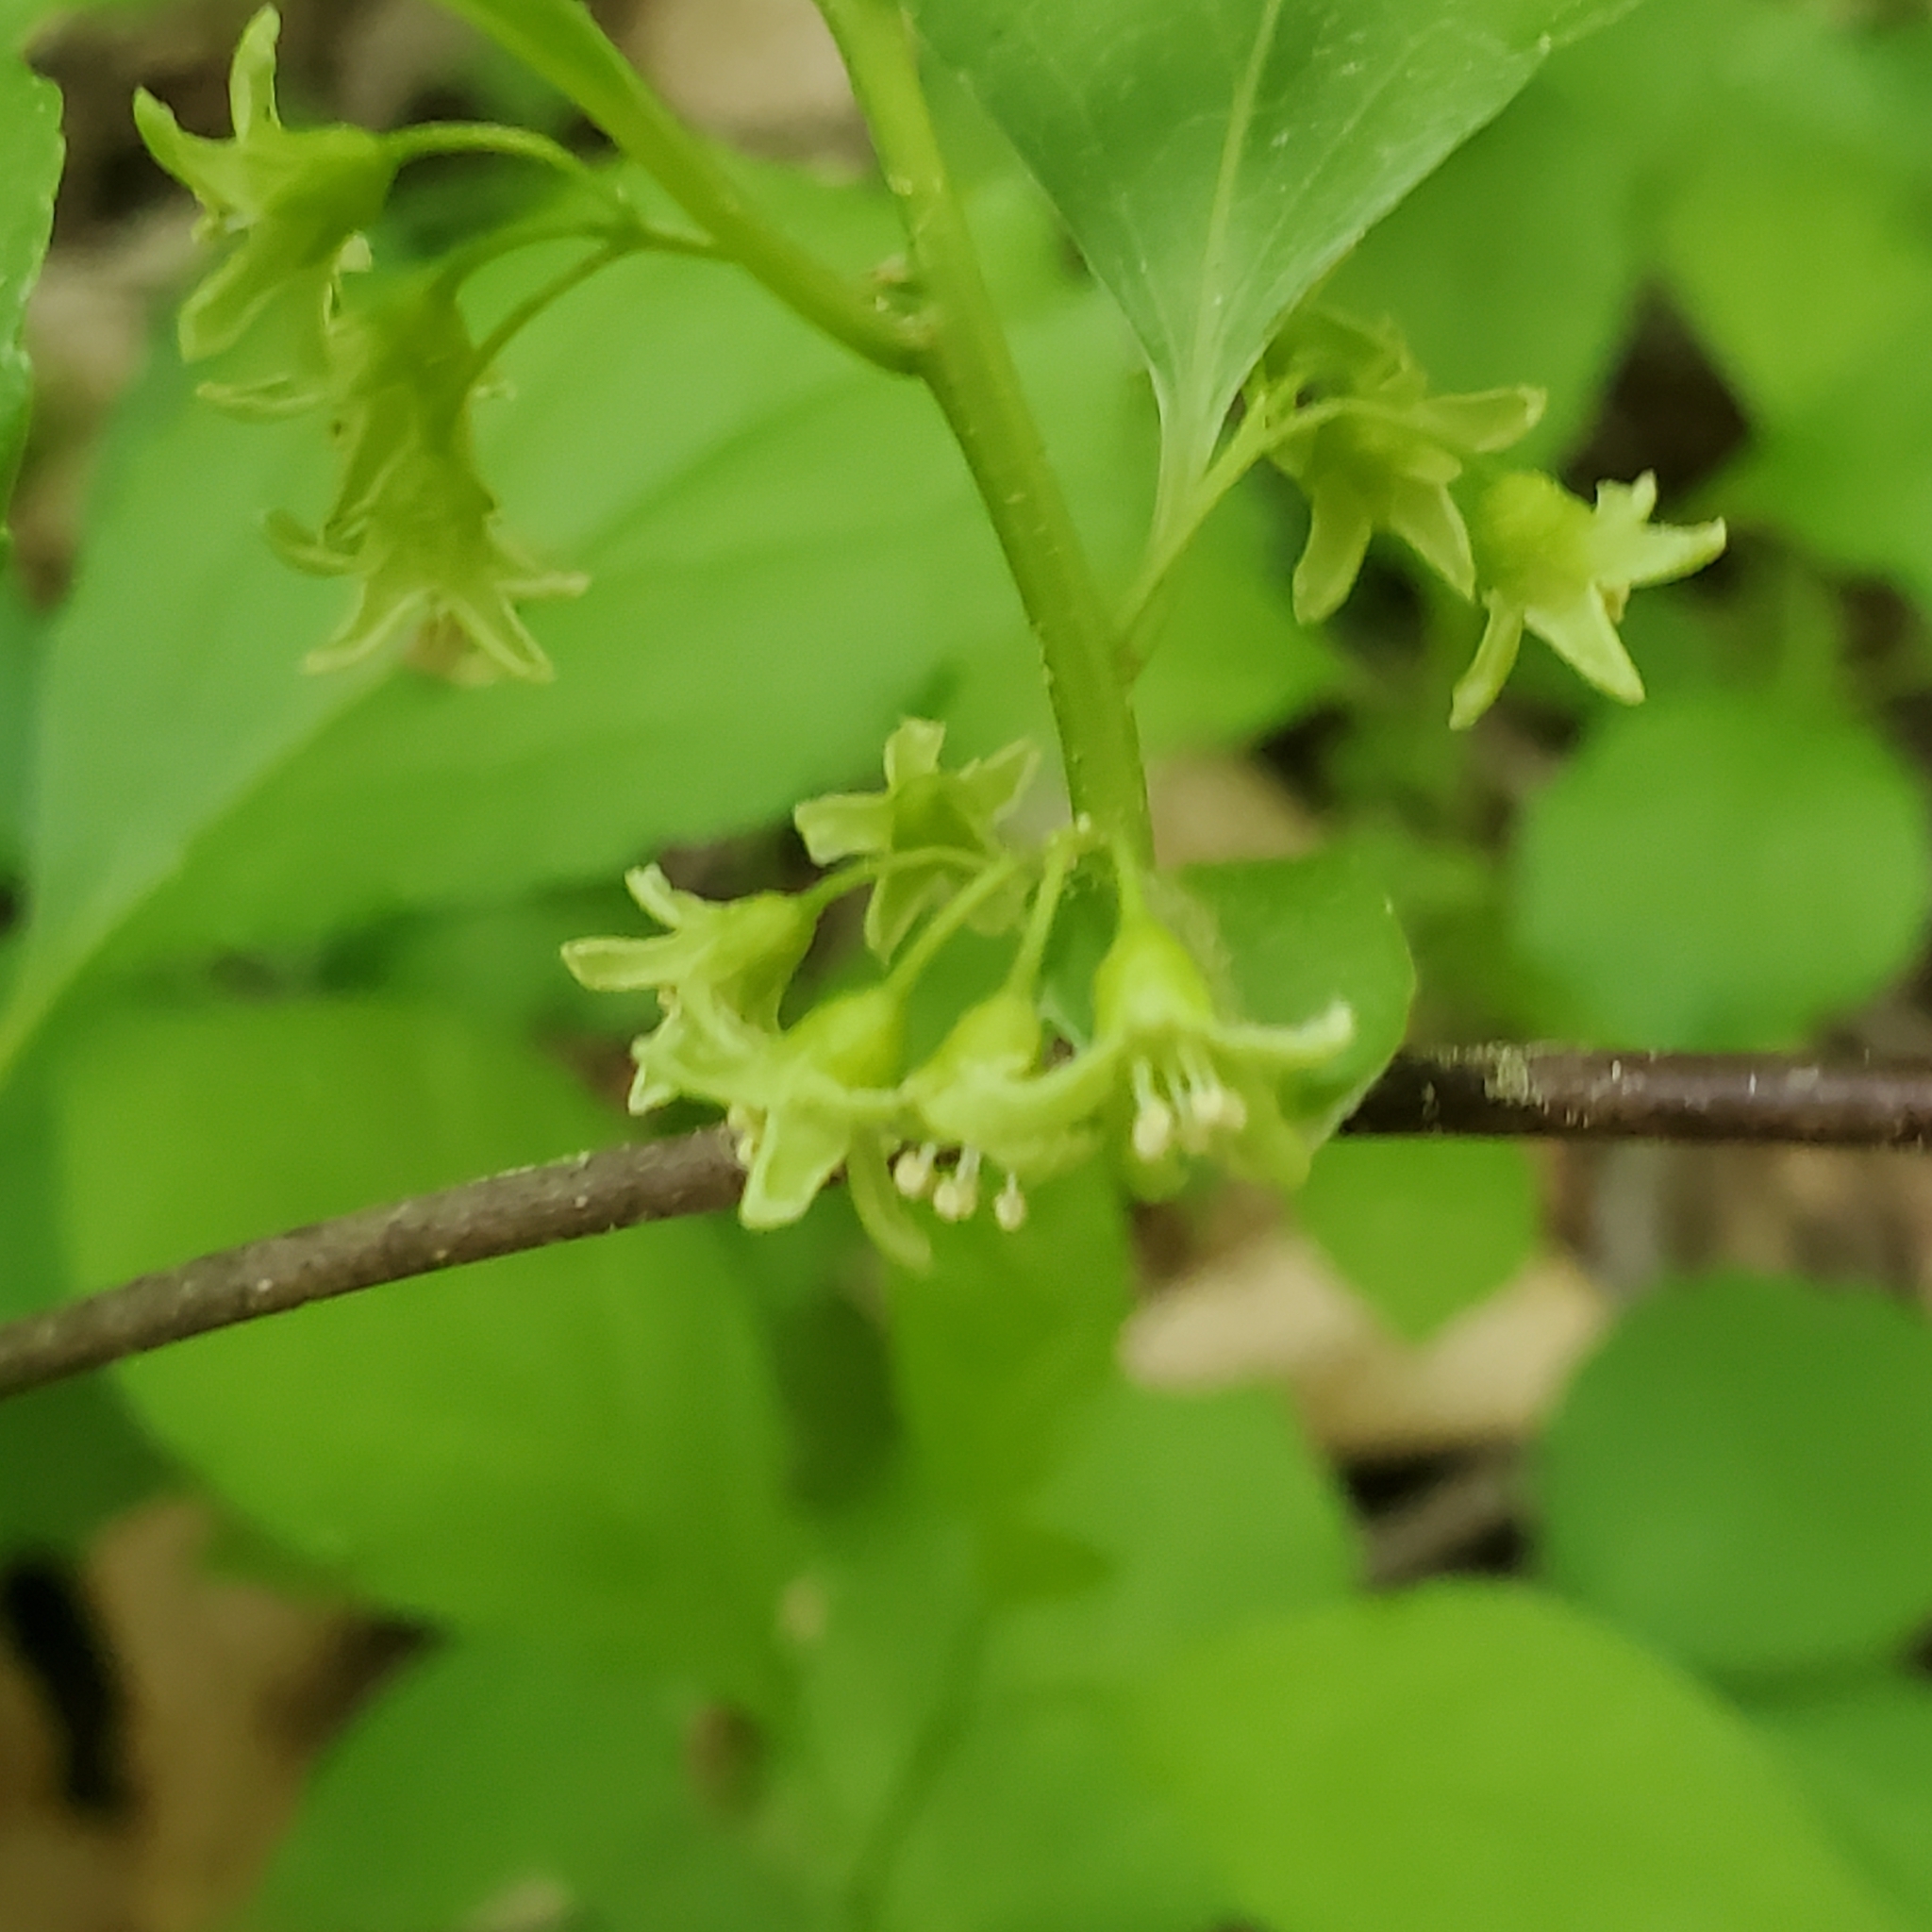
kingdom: Plantae
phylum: Tracheophyta
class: Magnoliopsida
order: Celastrales
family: Celastraceae
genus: Celastrus
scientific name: Celastrus orbiculatus
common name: Oriental bittersweet
